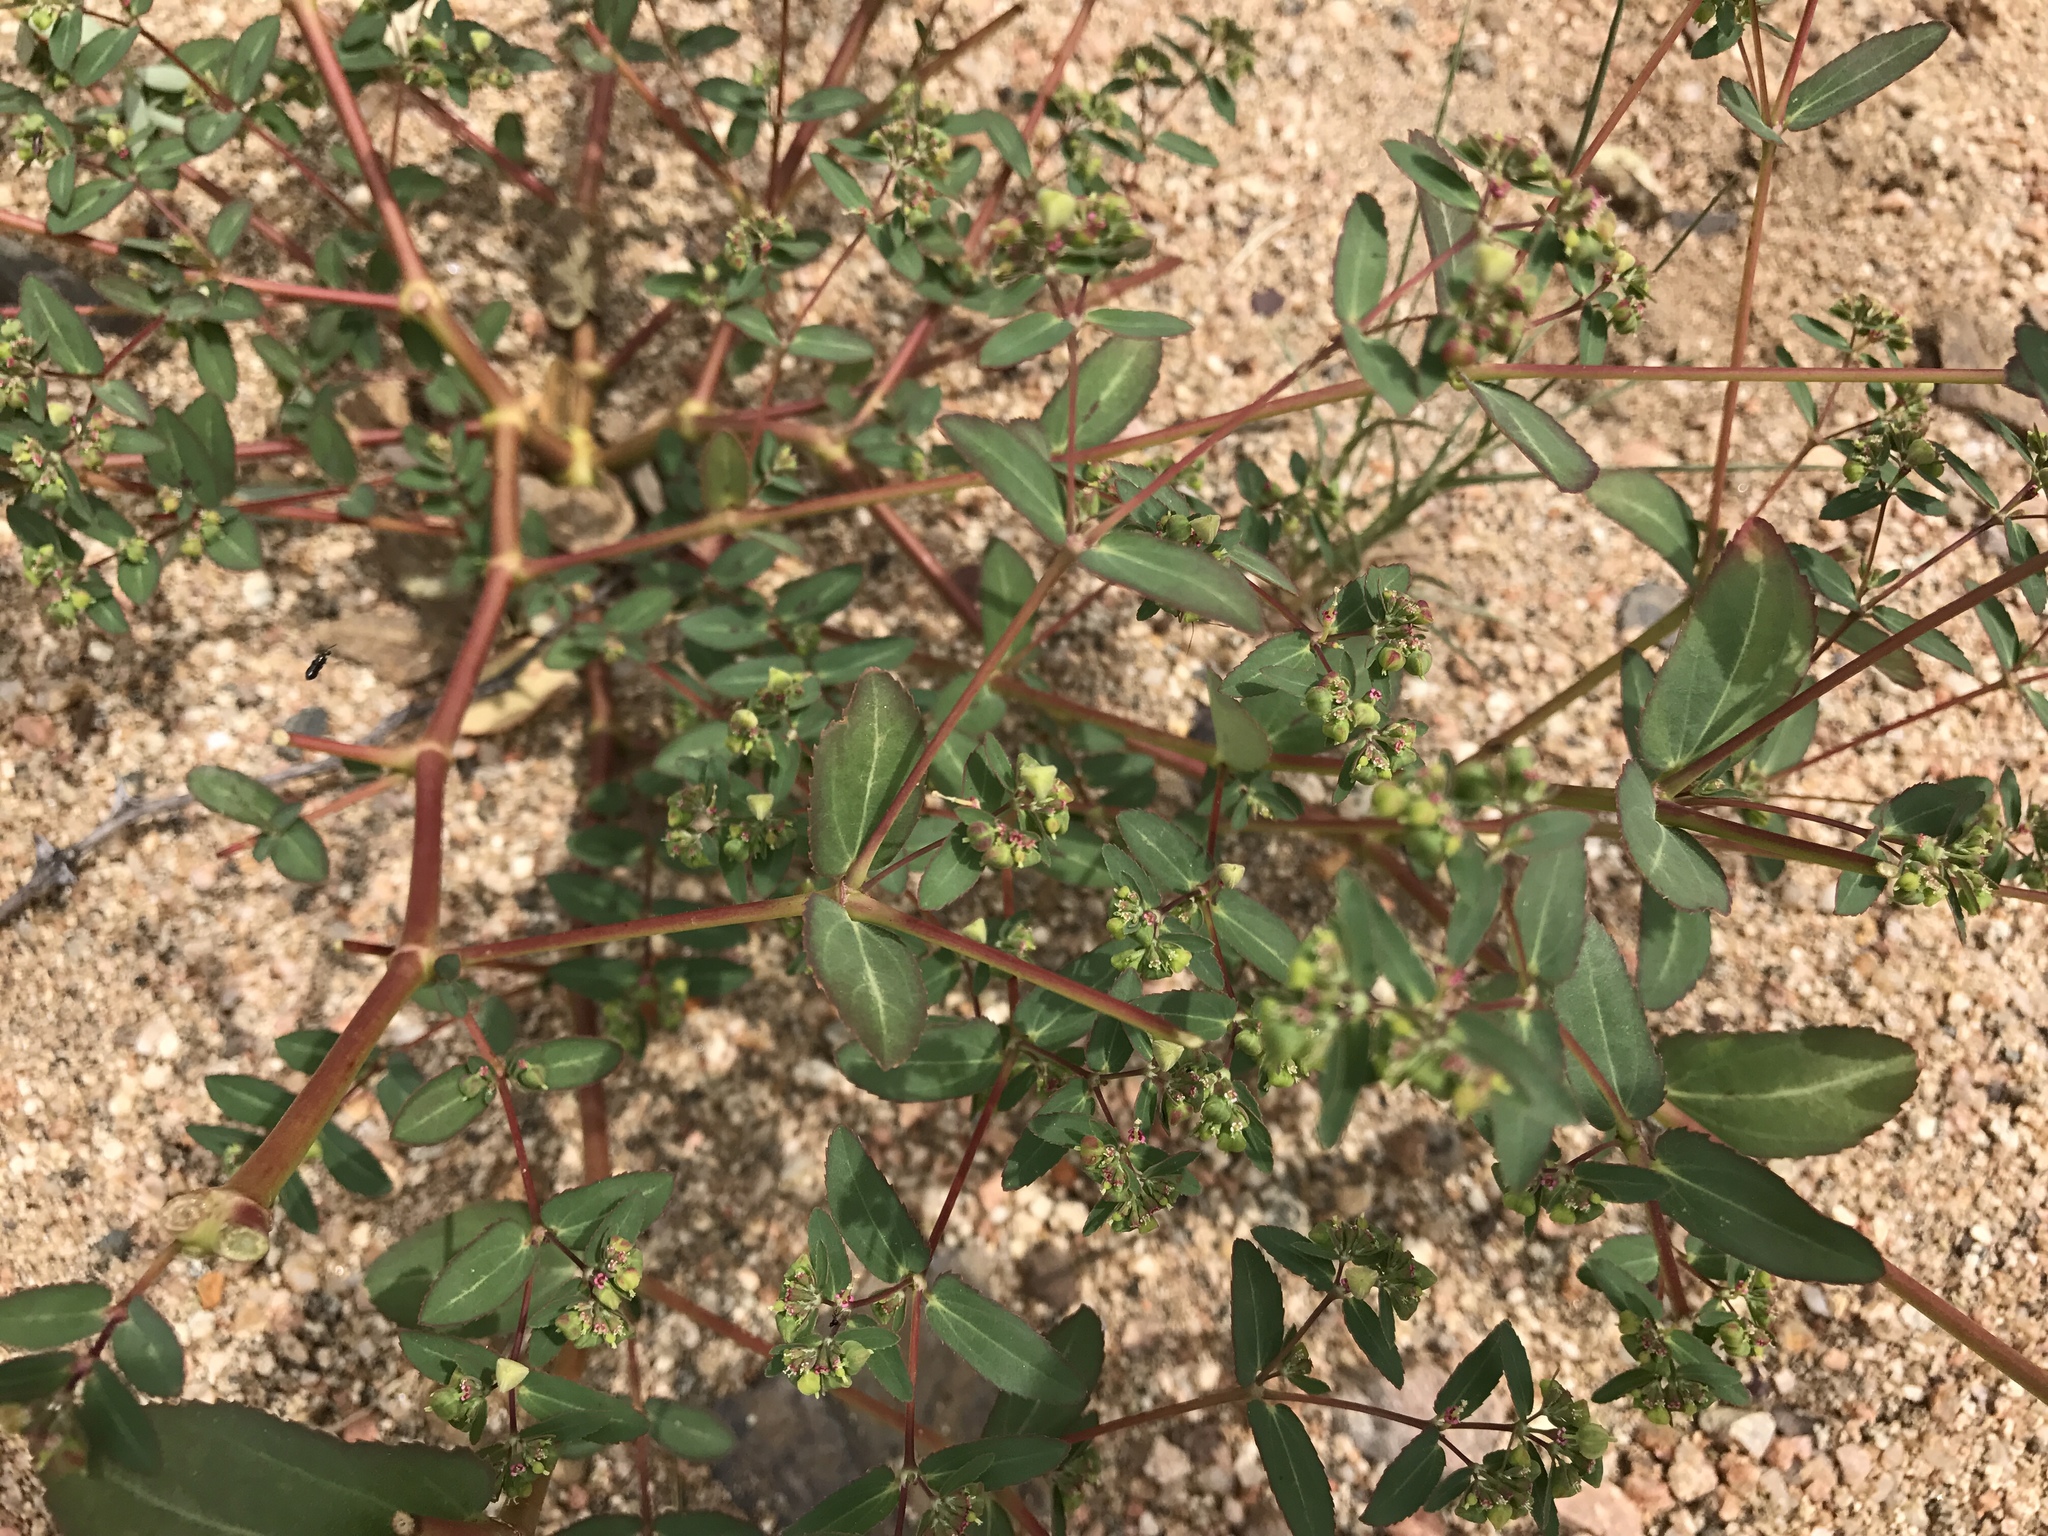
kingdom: Plantae
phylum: Tracheophyta
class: Magnoliopsida
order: Malpighiales
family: Euphorbiaceae
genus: Euphorbia
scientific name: Euphorbia hyssopifolia
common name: Hyssopleaf sandmat
